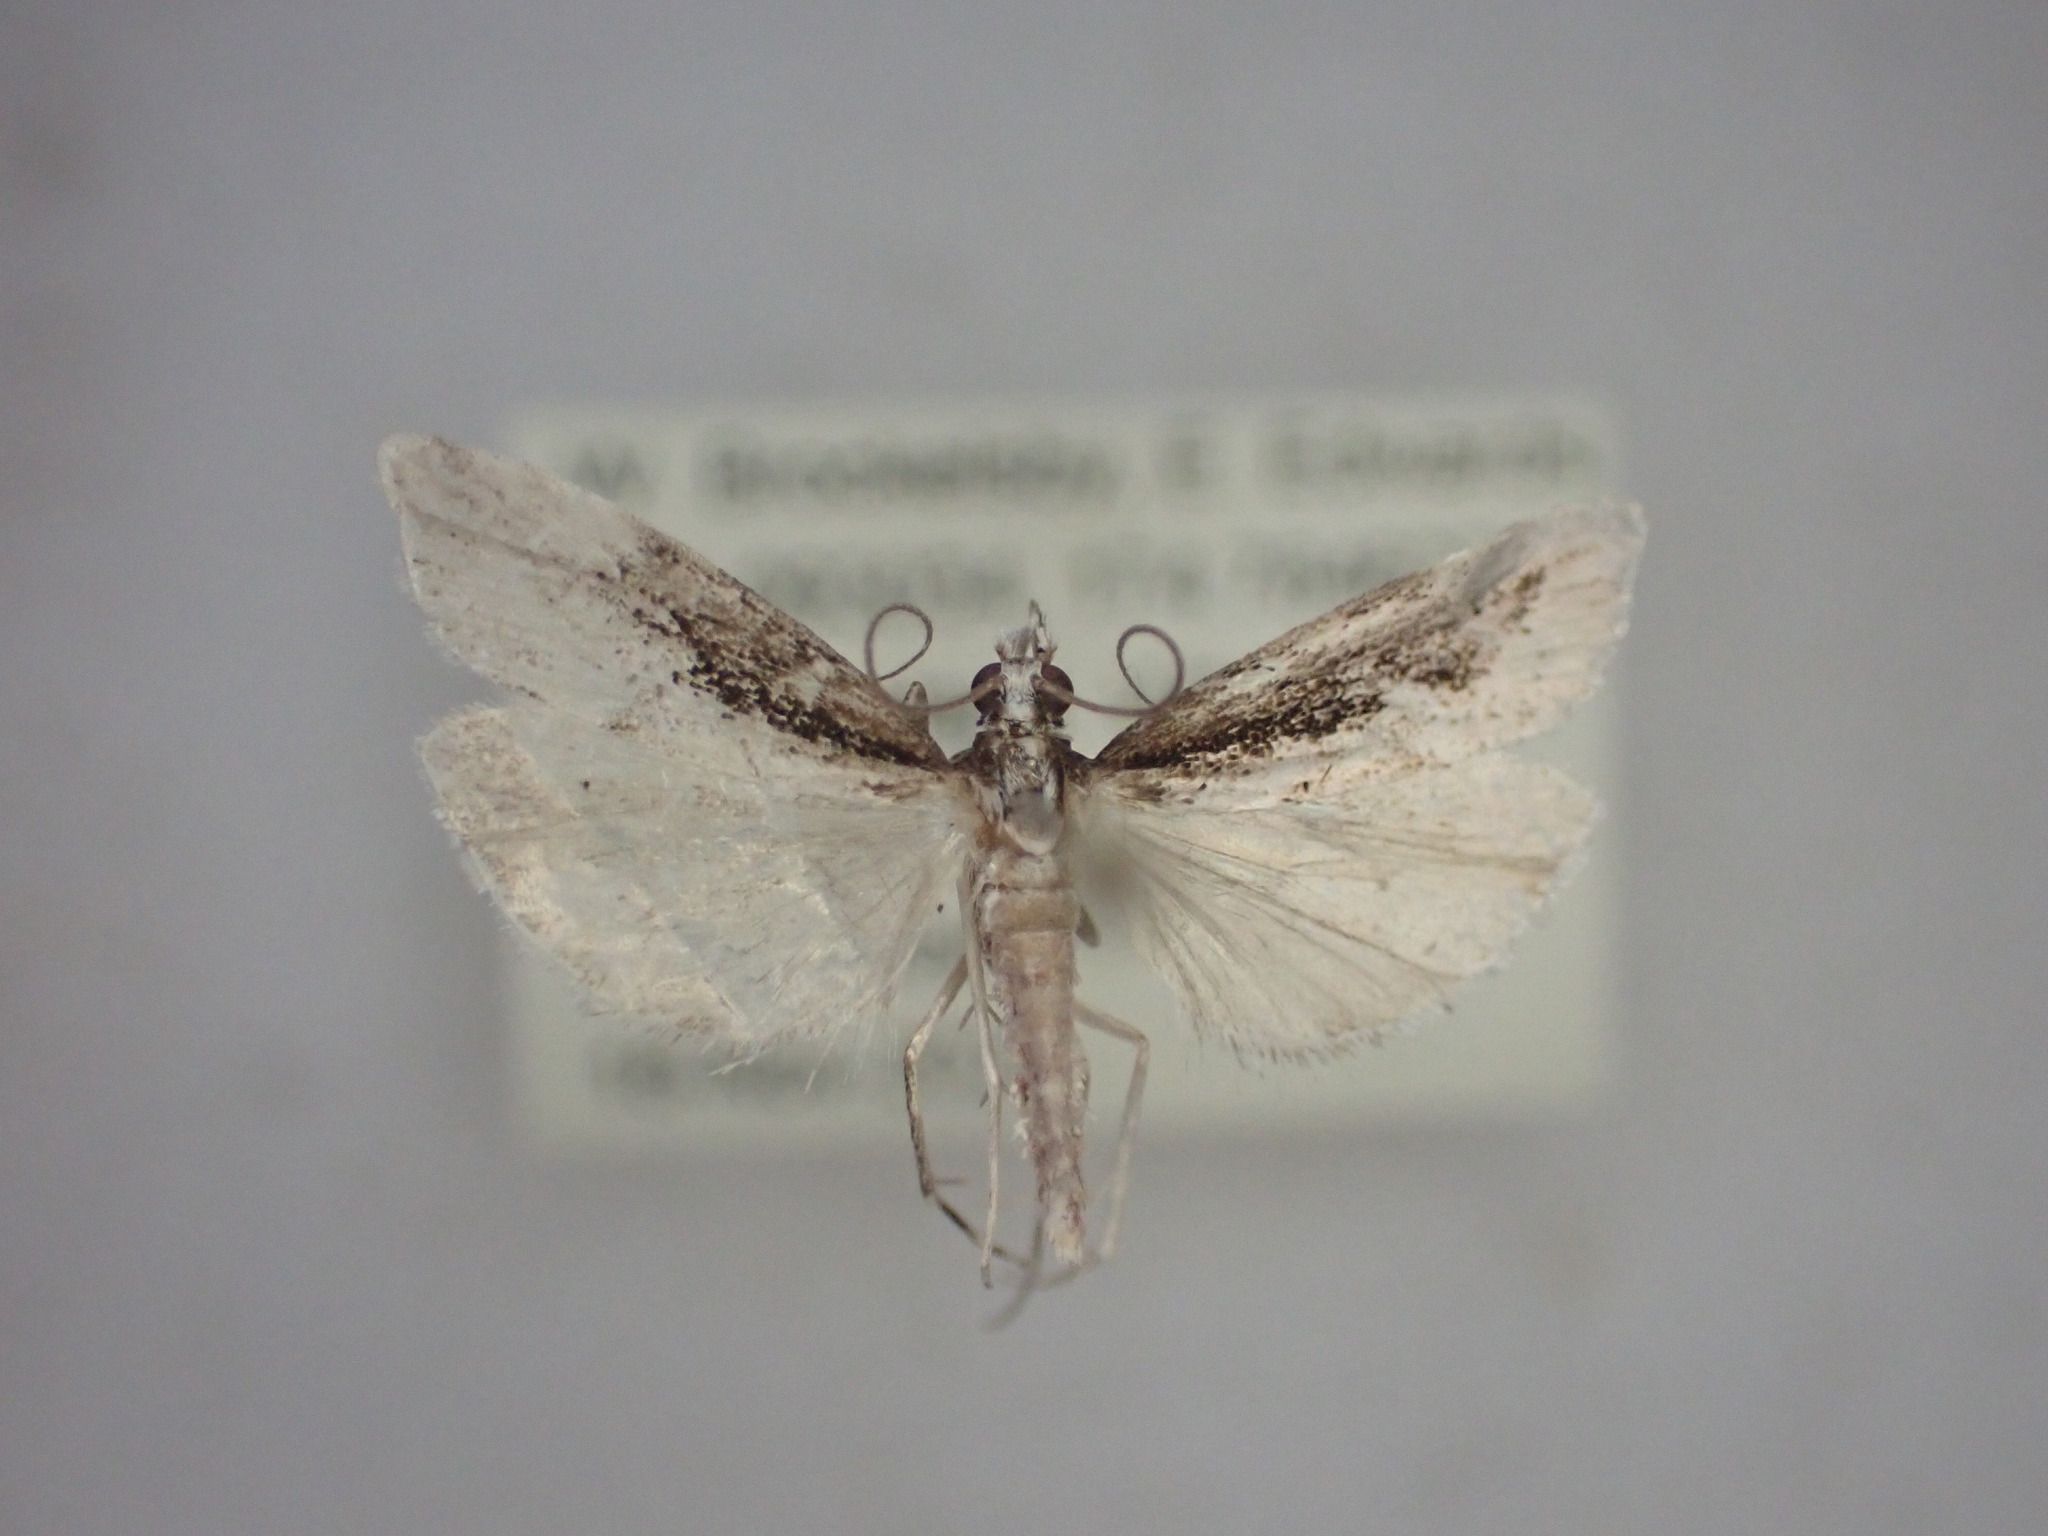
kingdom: Animalia
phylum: Arthropoda
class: Insecta
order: Lepidoptera
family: Crambidae
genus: Eudonia
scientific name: Eudonia steropaea
